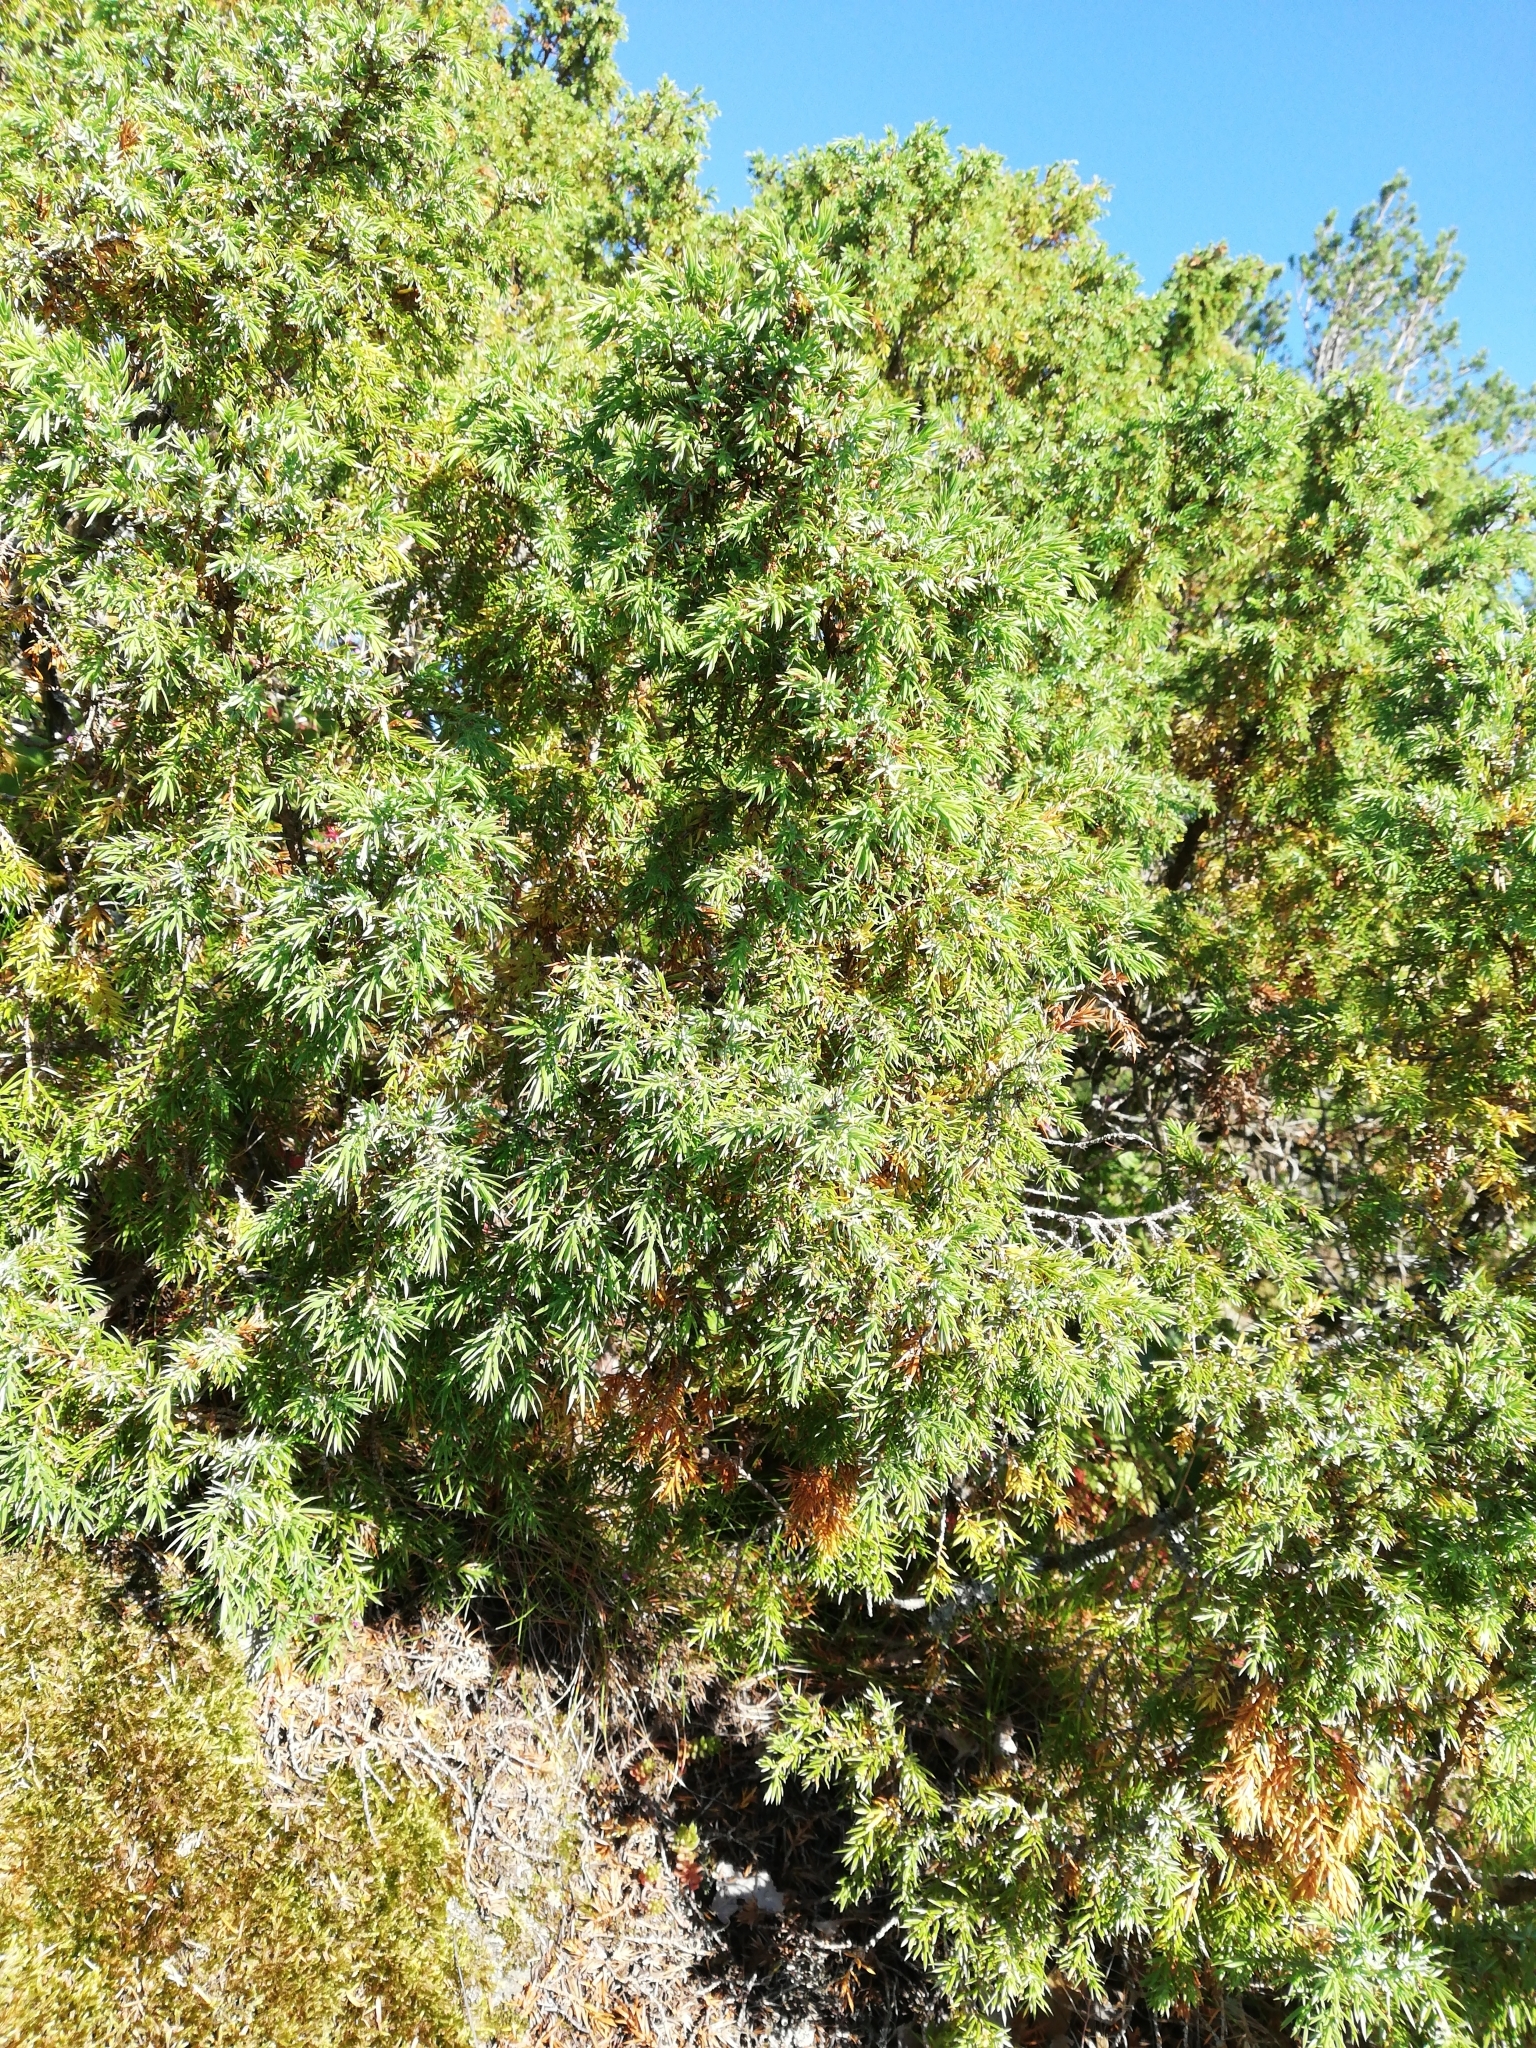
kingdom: Plantae
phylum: Tracheophyta
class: Pinopsida
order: Pinales
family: Cupressaceae
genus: Juniperus
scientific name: Juniperus communis
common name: Common juniper
